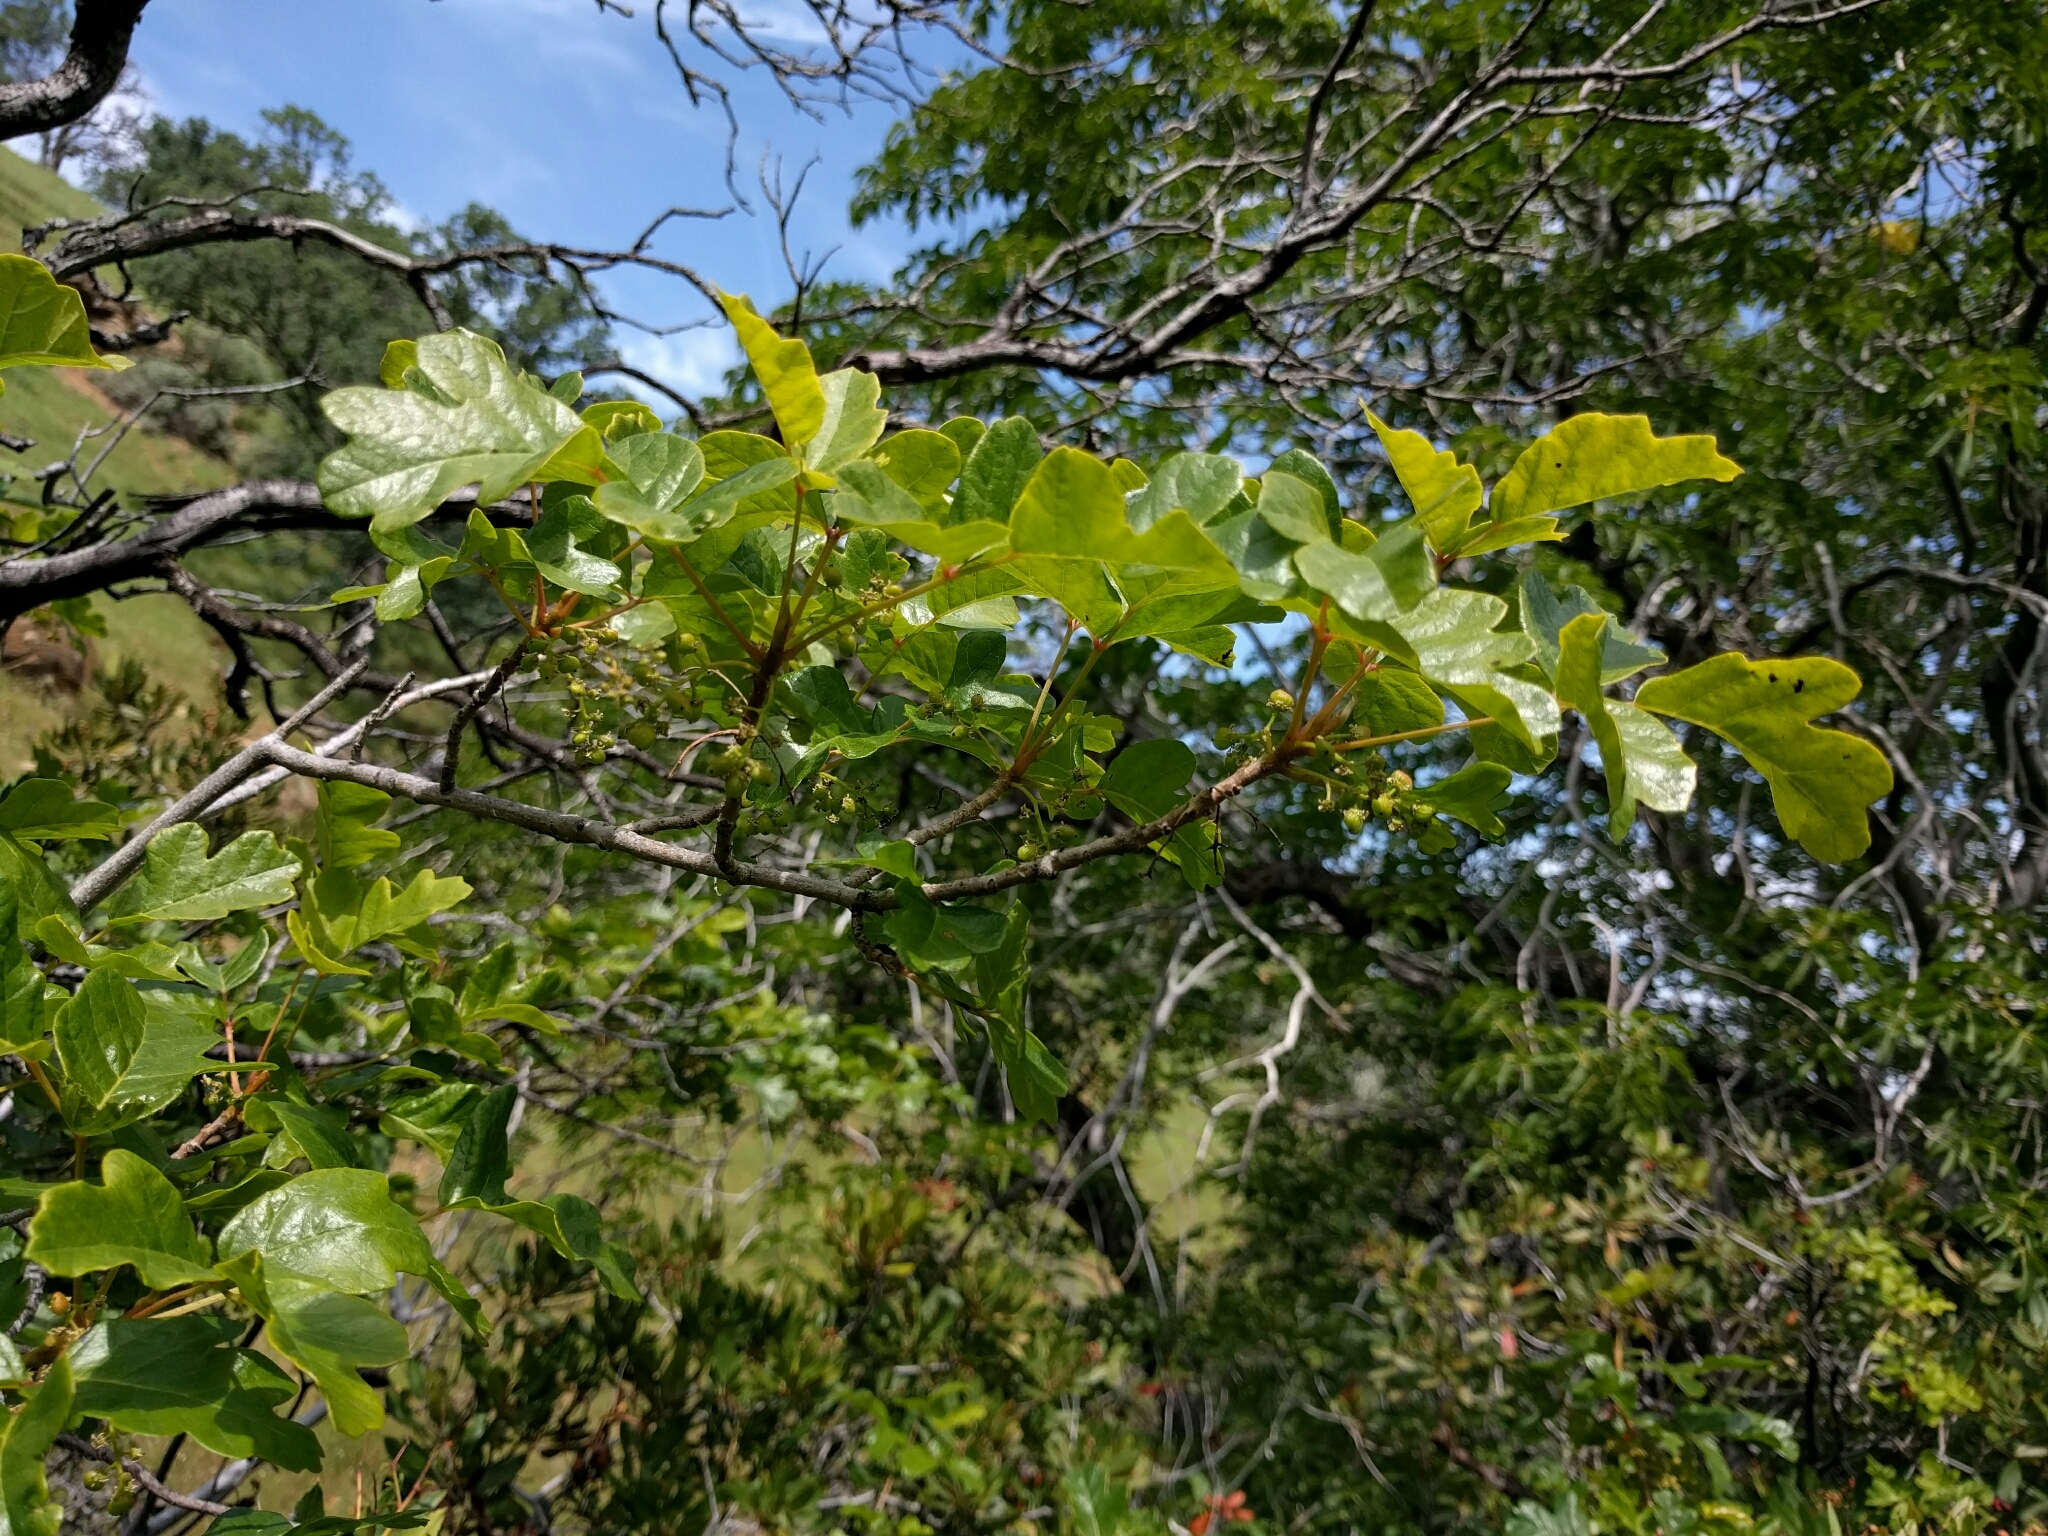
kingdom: Plantae
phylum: Tracheophyta
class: Magnoliopsida
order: Sapindales
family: Anacardiaceae
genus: Toxicodendron
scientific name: Toxicodendron diversilobum
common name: Pacific poison-oak
